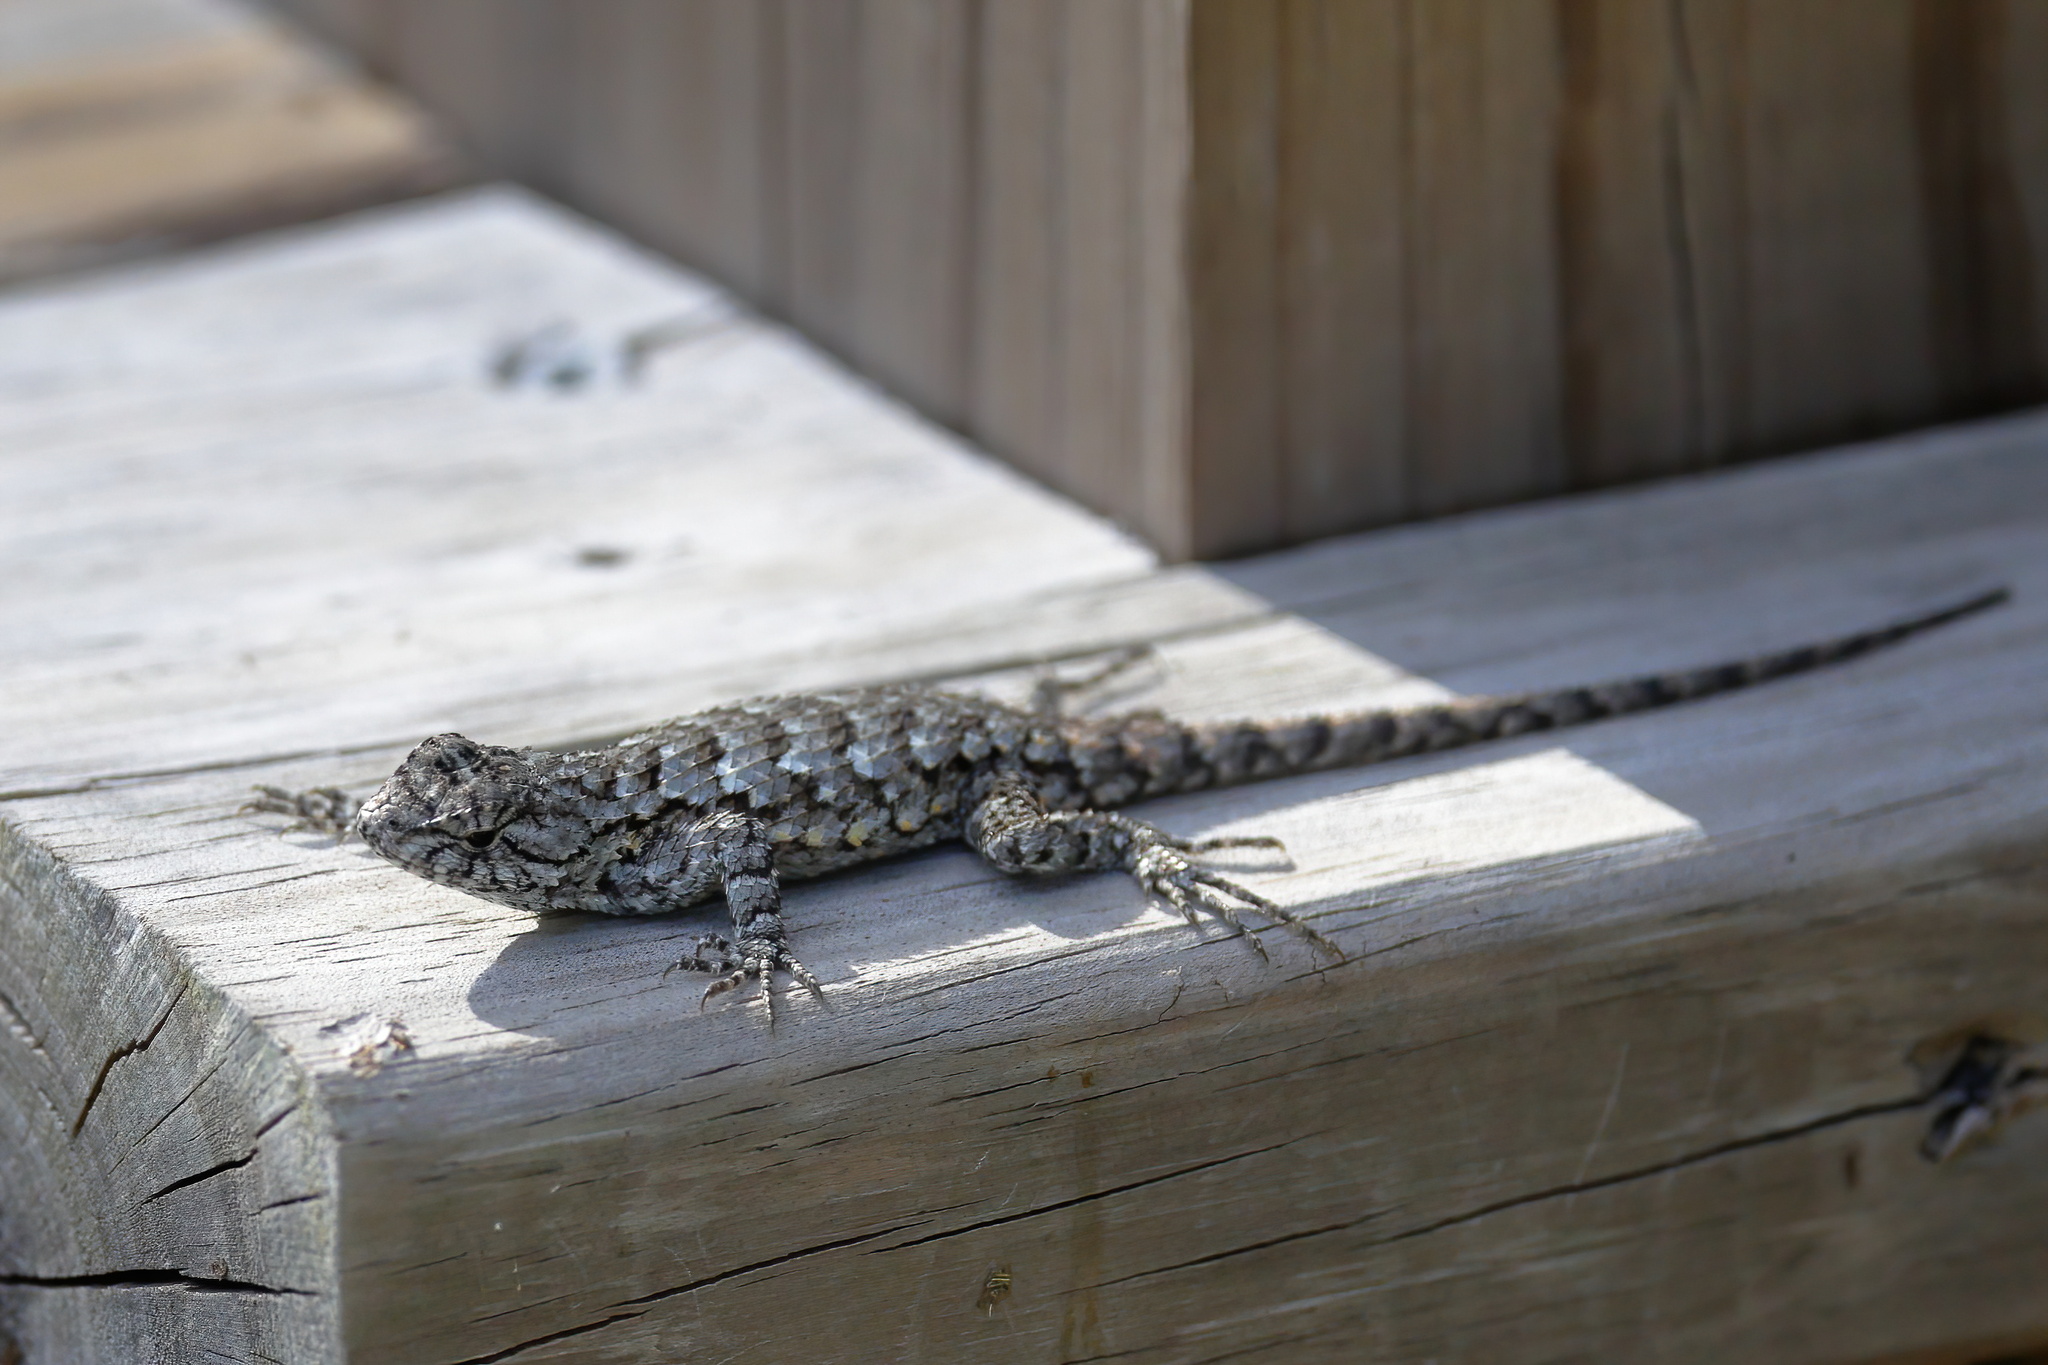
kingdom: Animalia
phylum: Chordata
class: Squamata
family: Phrynosomatidae
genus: Sceloporus
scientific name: Sceloporus undulatus
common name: Eastern fence lizard
